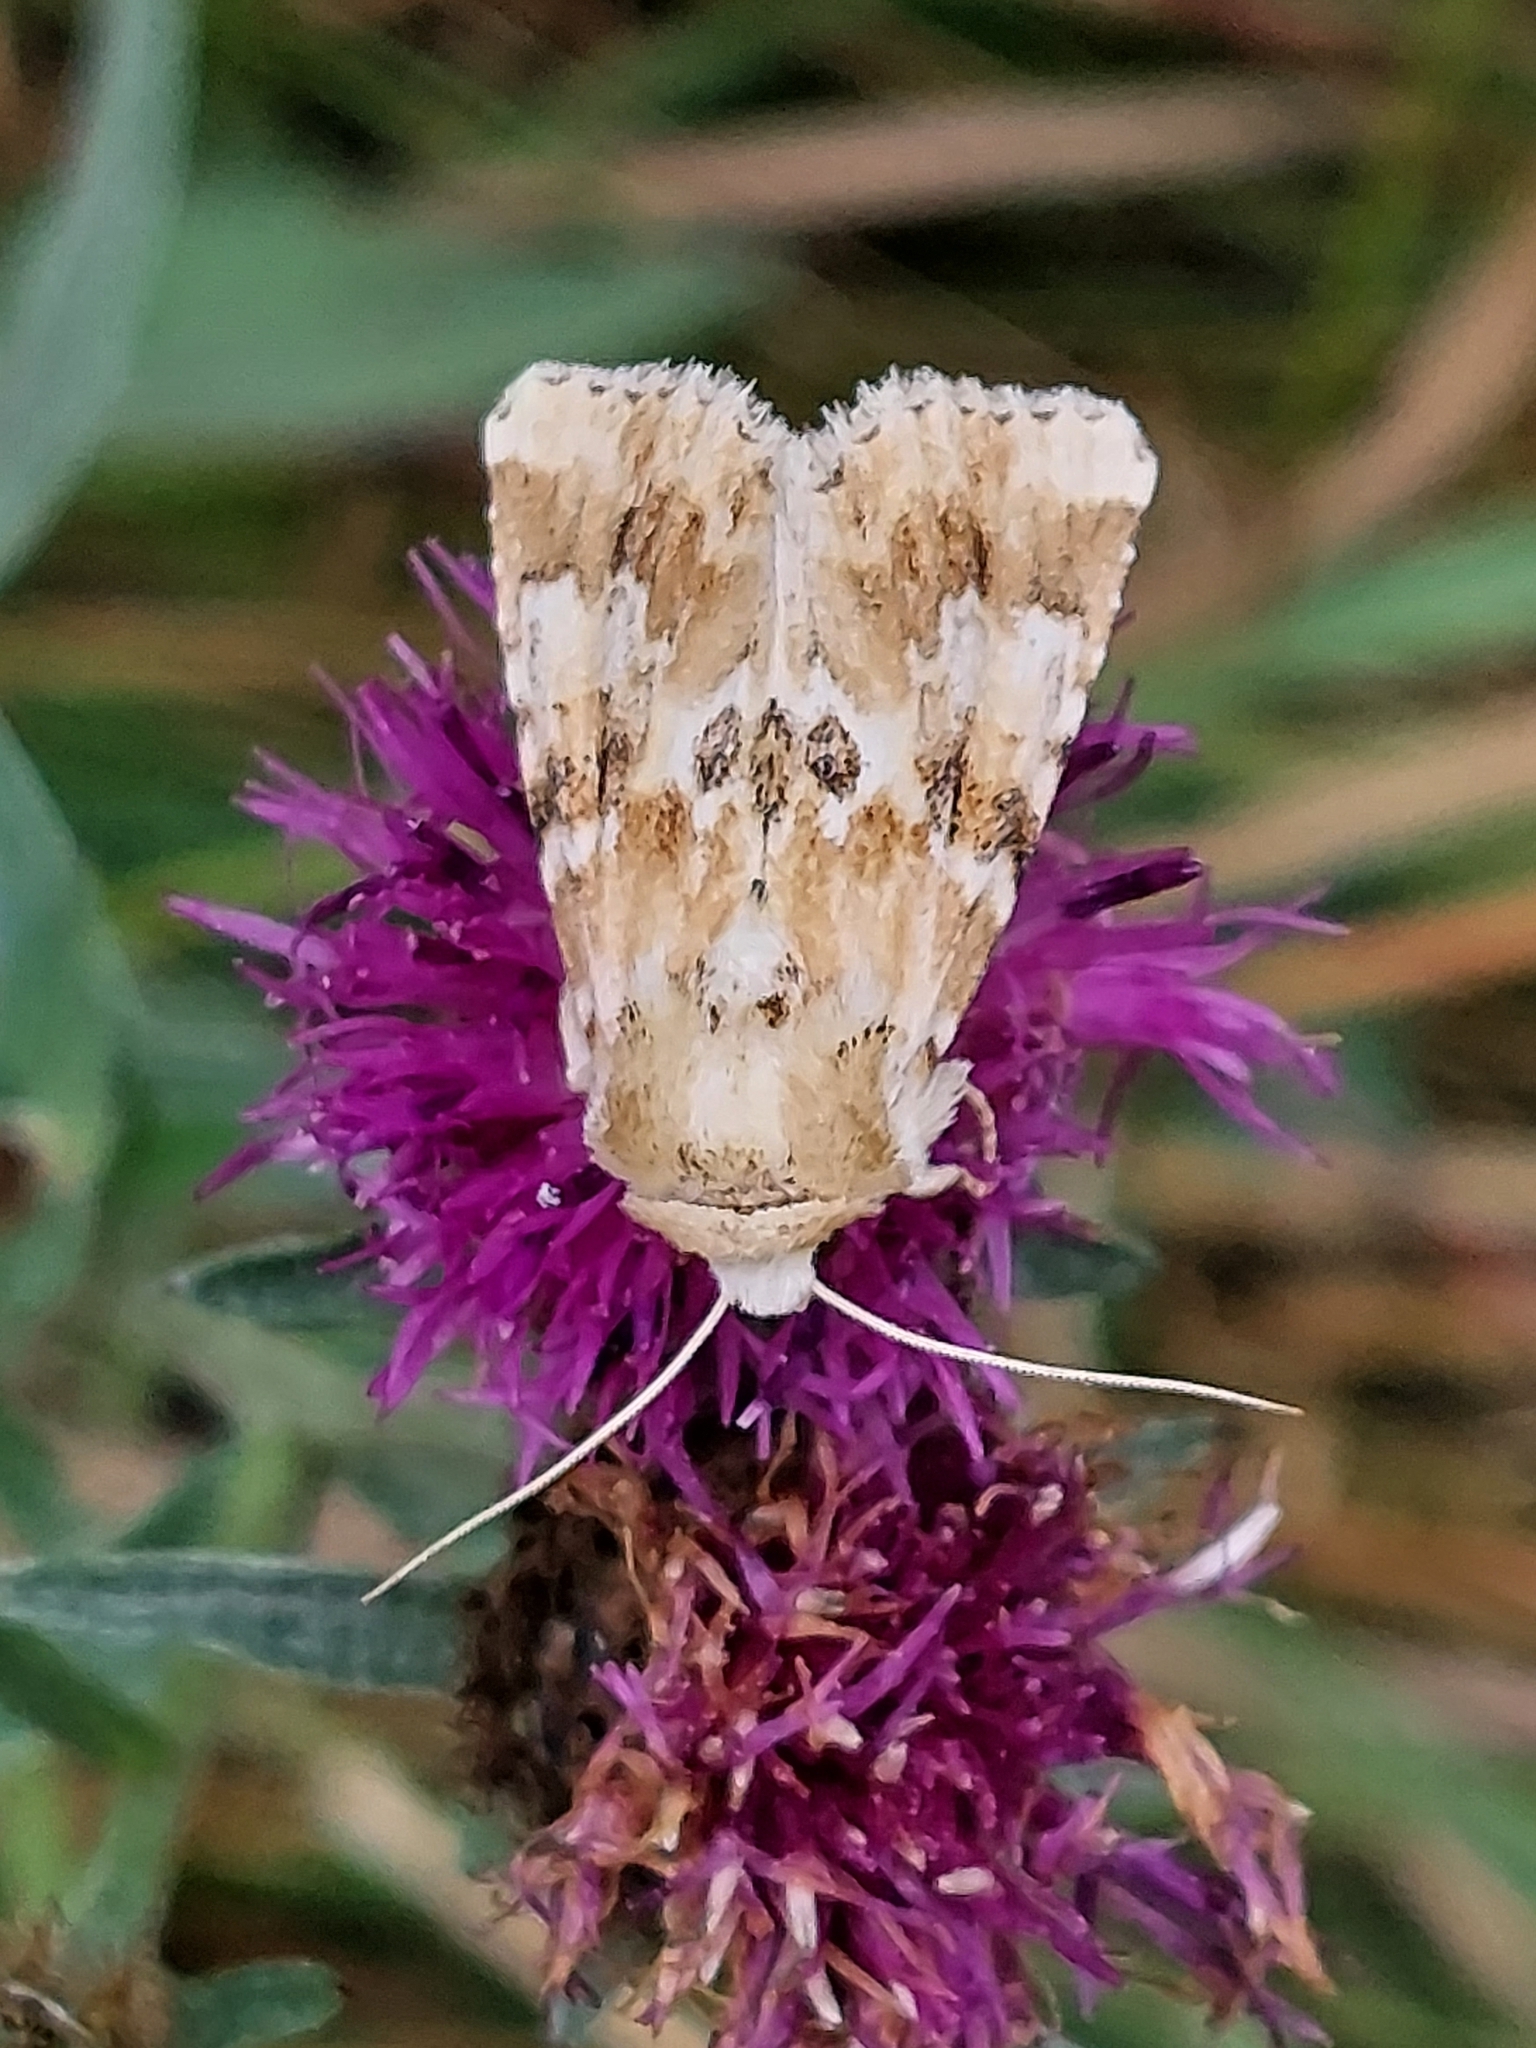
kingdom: Animalia
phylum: Arthropoda
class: Insecta
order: Lepidoptera
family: Noctuidae
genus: Eremobia
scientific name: Eremobia ochroleuca
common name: Dusky sallow
